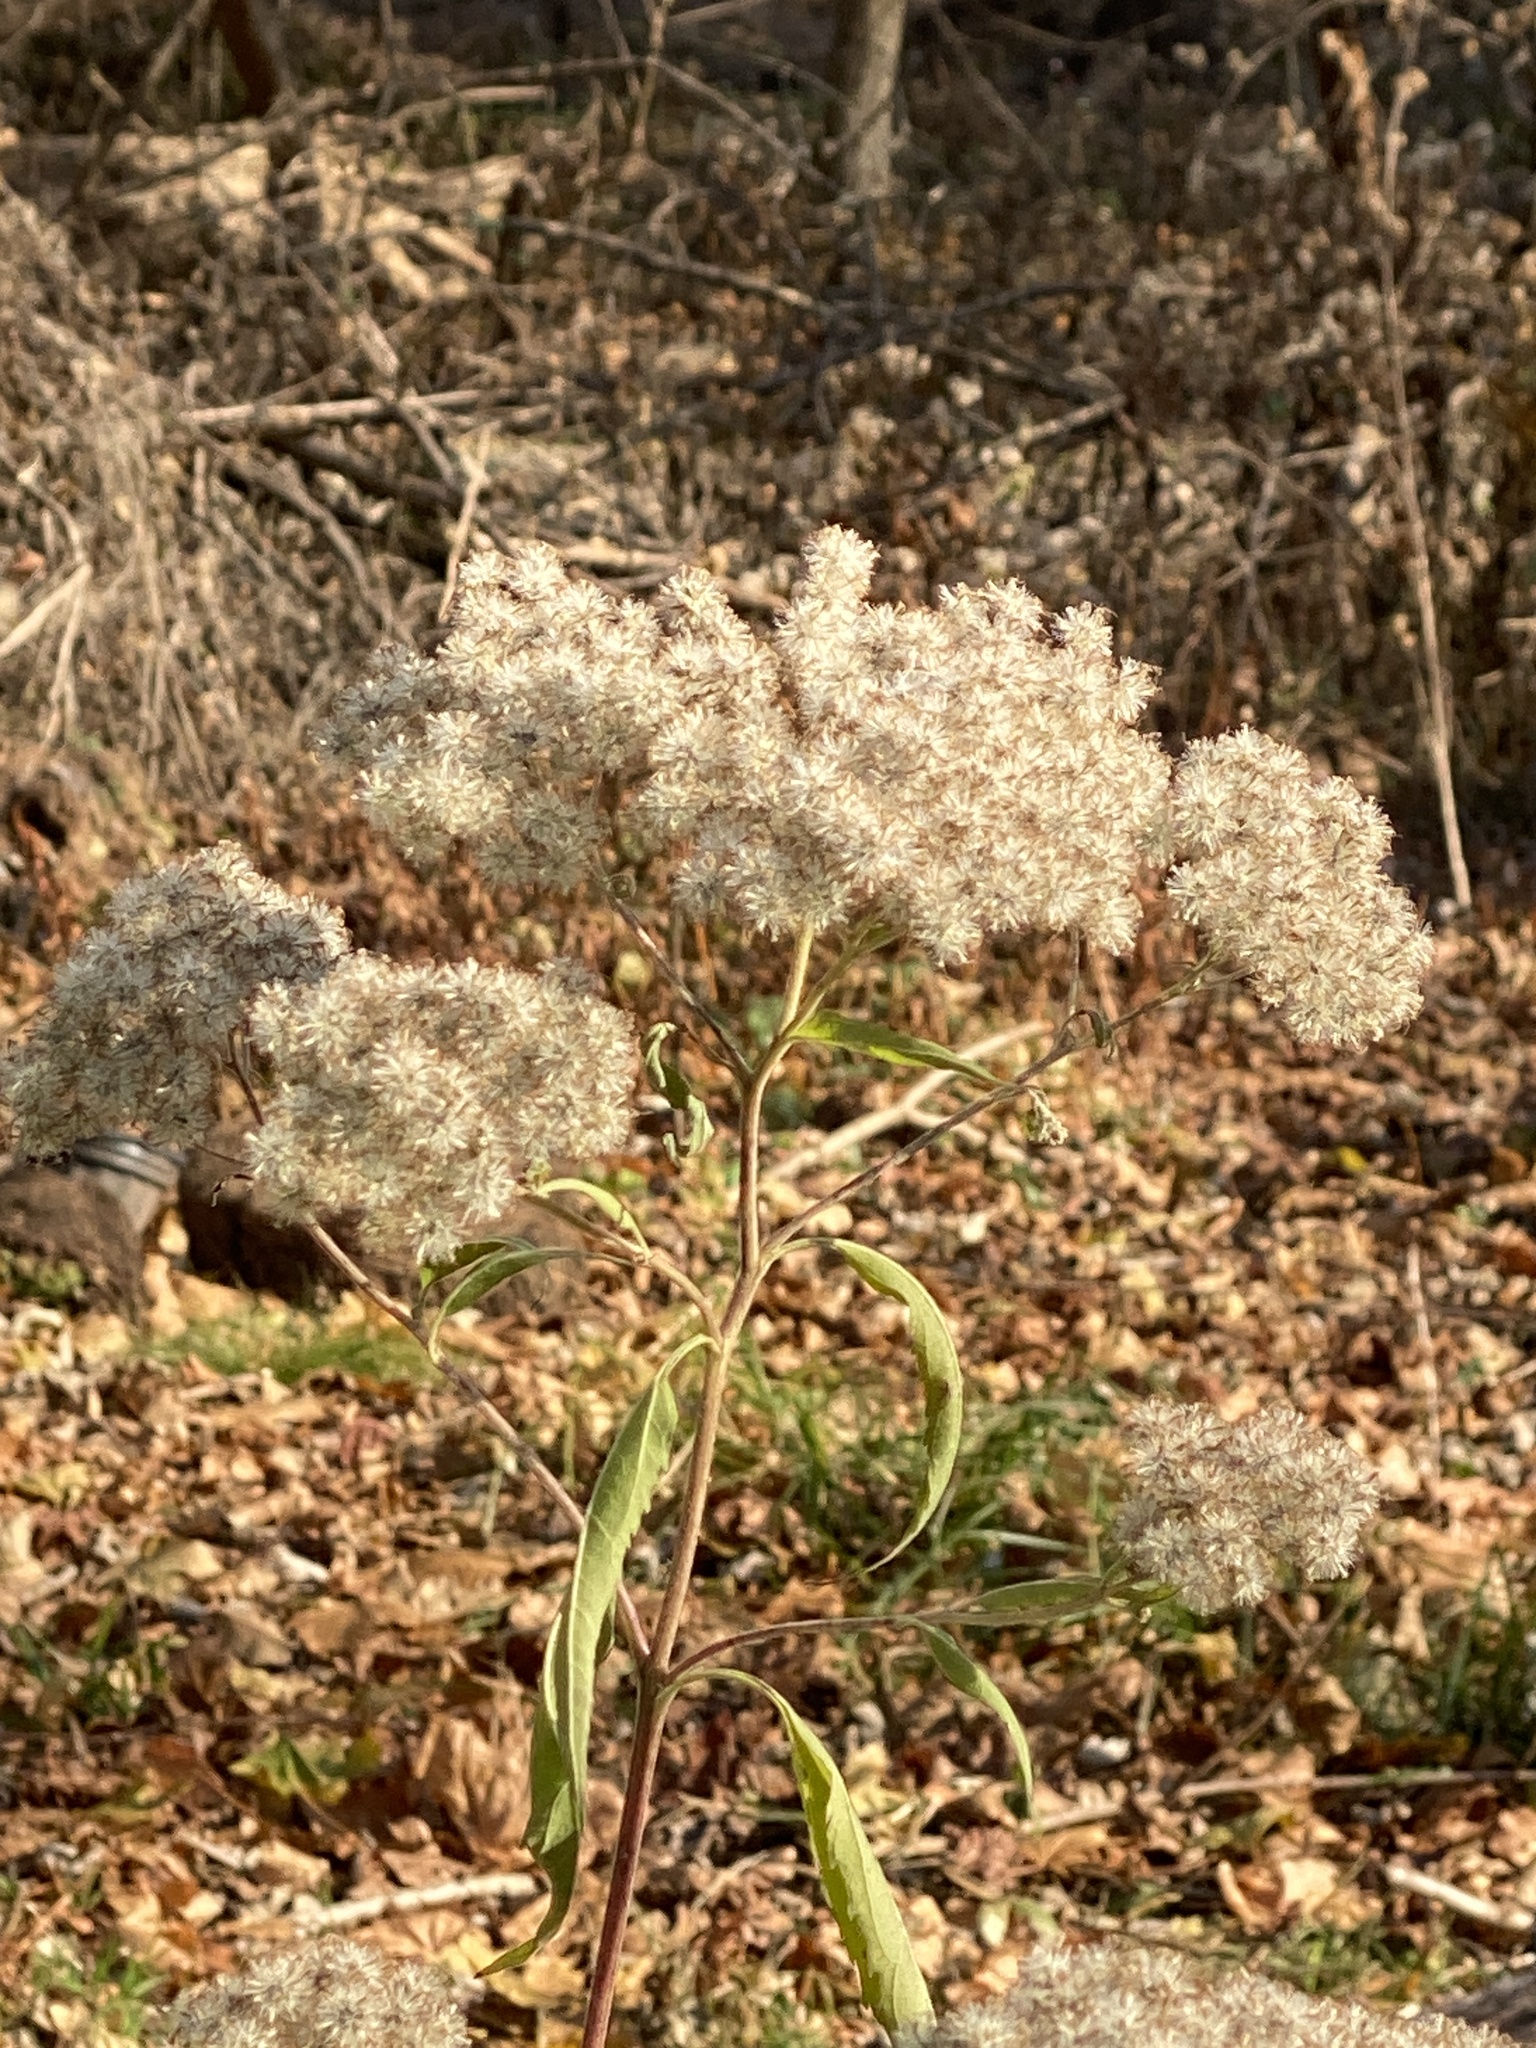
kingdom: Plantae
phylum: Tracheophyta
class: Magnoliopsida
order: Asterales
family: Asteraceae
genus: Eupatorium
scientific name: Eupatorium serotinum
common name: Late boneset
